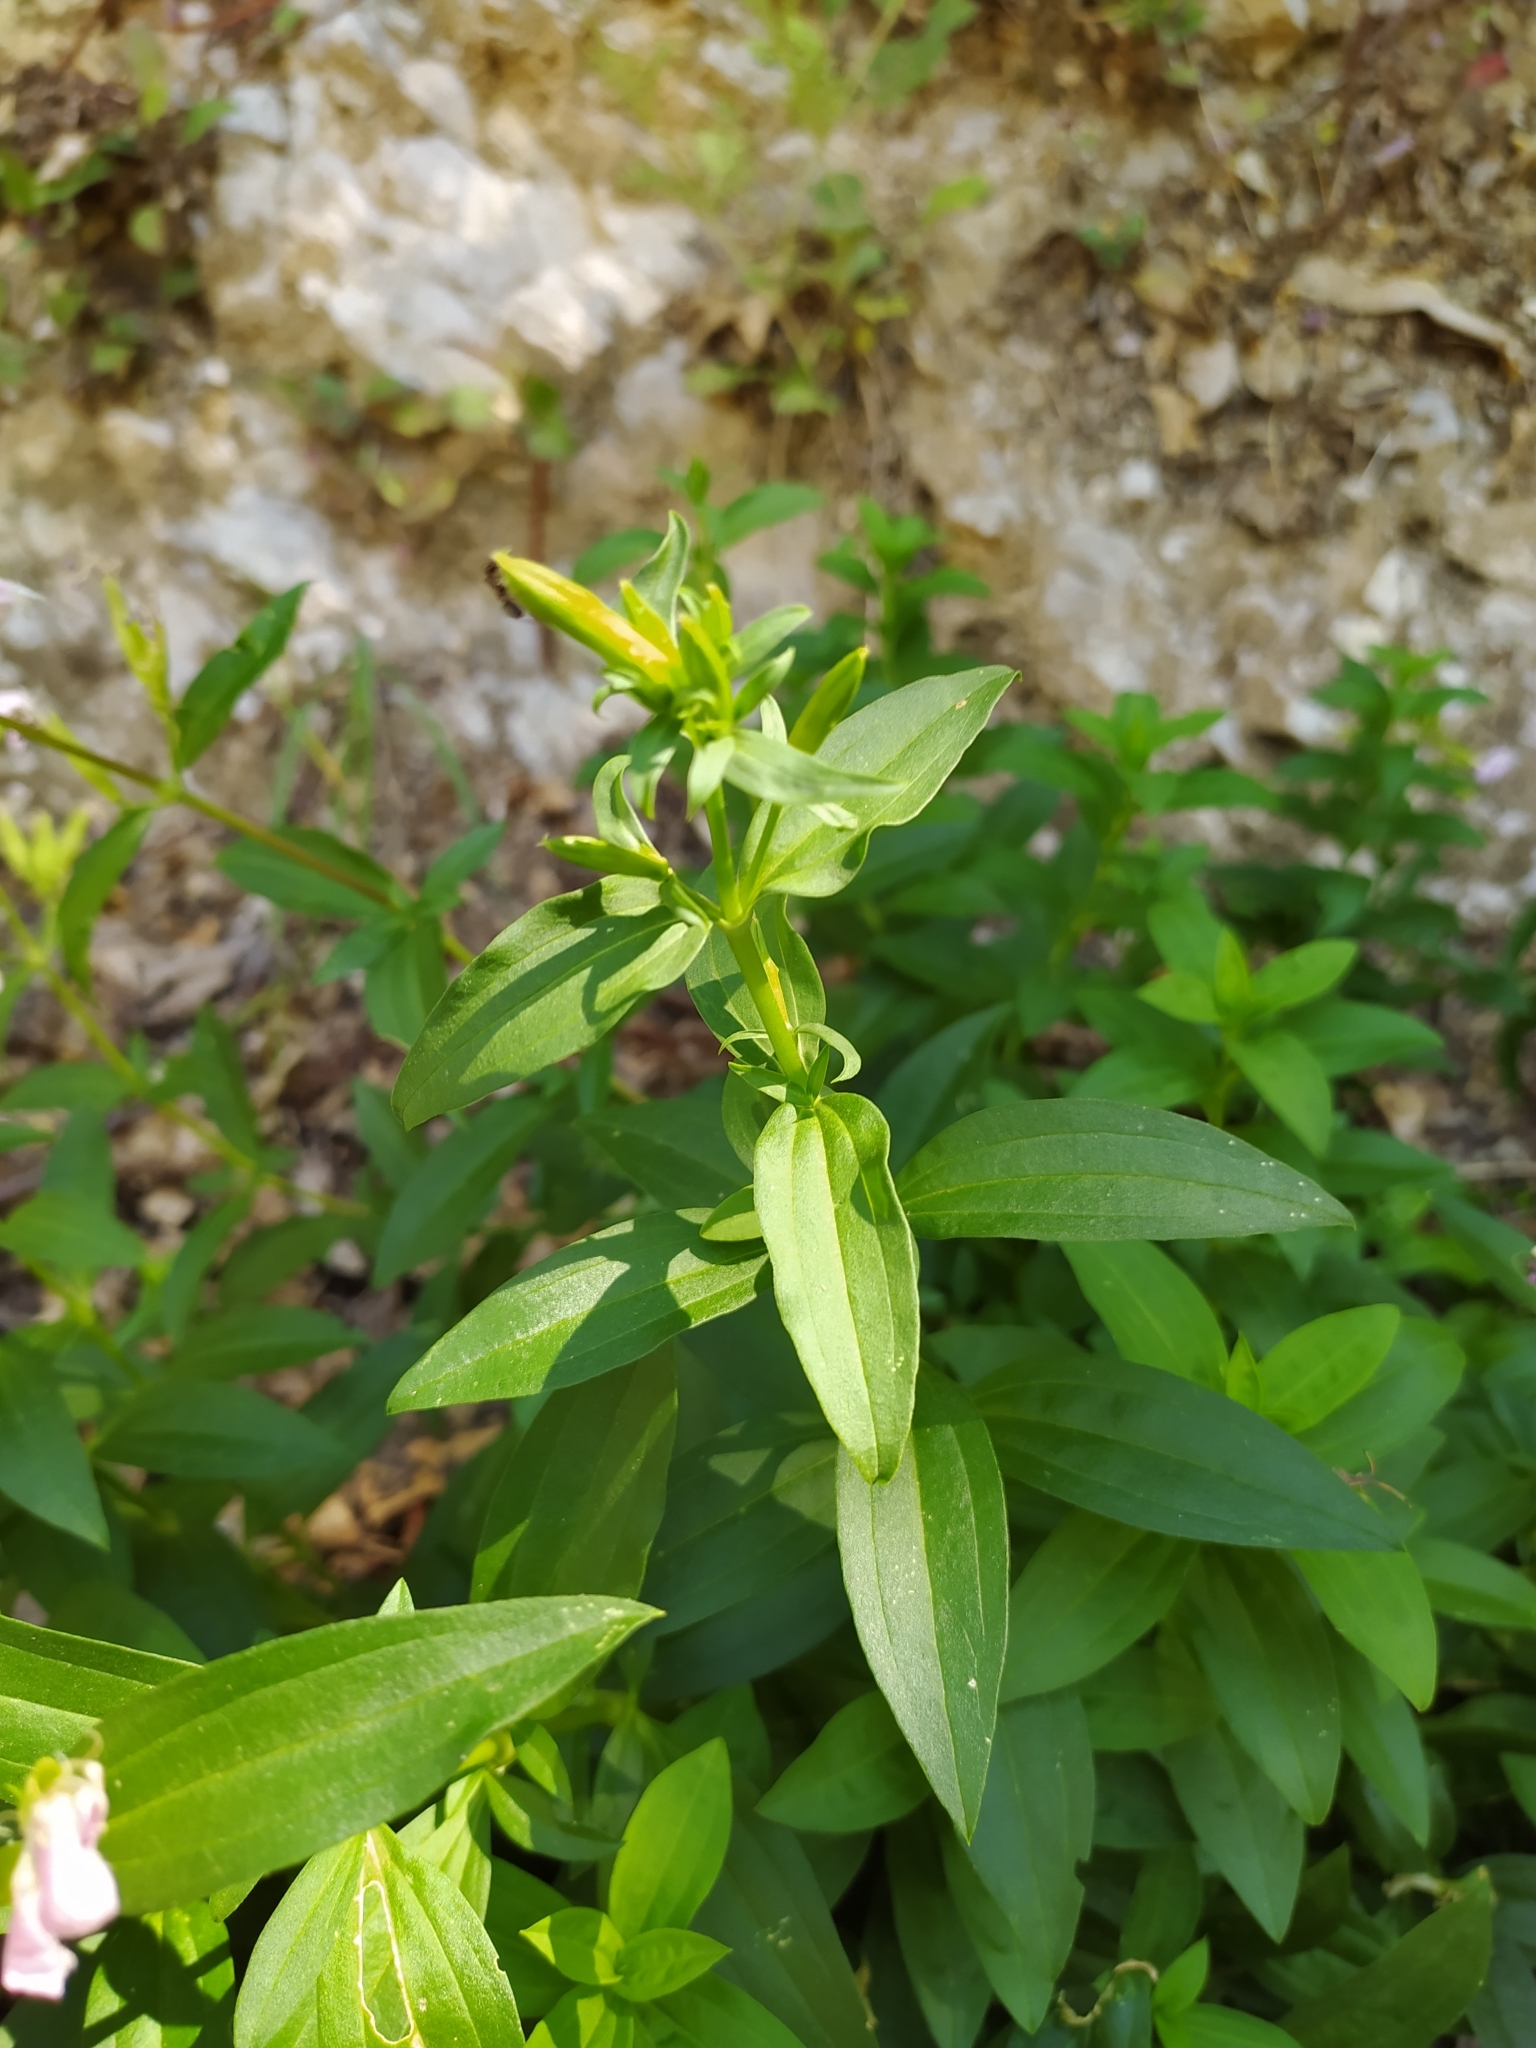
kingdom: Plantae
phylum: Tracheophyta
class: Magnoliopsida
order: Caryophyllales
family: Caryophyllaceae
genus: Saponaria
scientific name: Saponaria officinalis
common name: Soapwort
